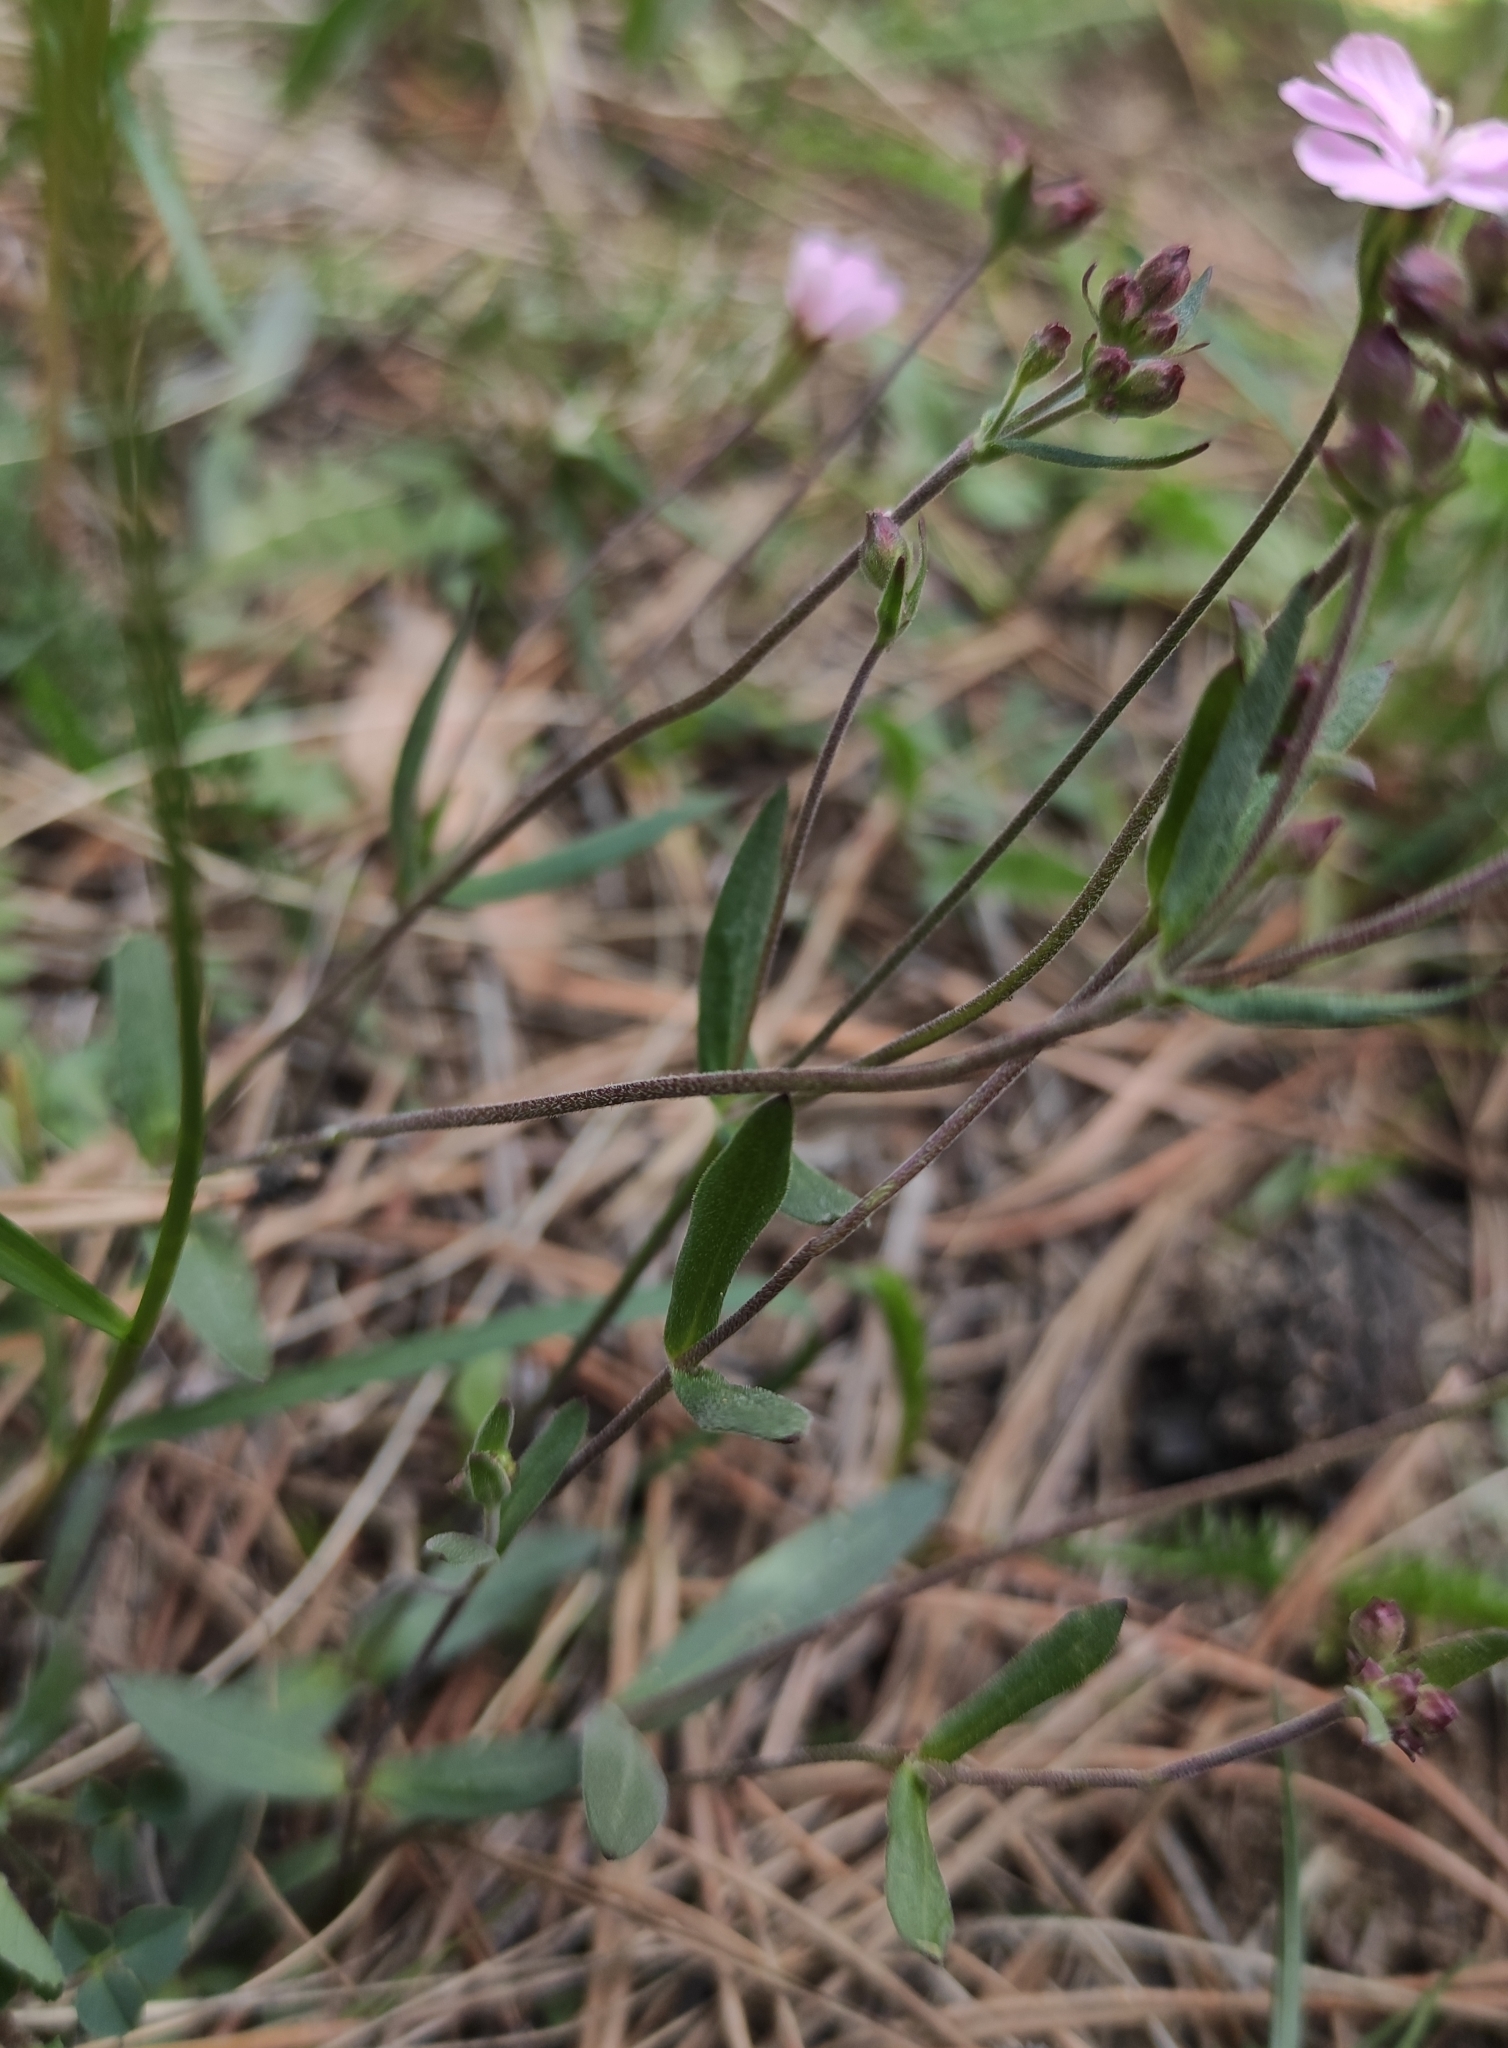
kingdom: Plantae
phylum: Tracheophyta
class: Magnoliopsida
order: Caryophyllales
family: Caryophyllaceae
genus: Silene
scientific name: Silene orientalimongolica
